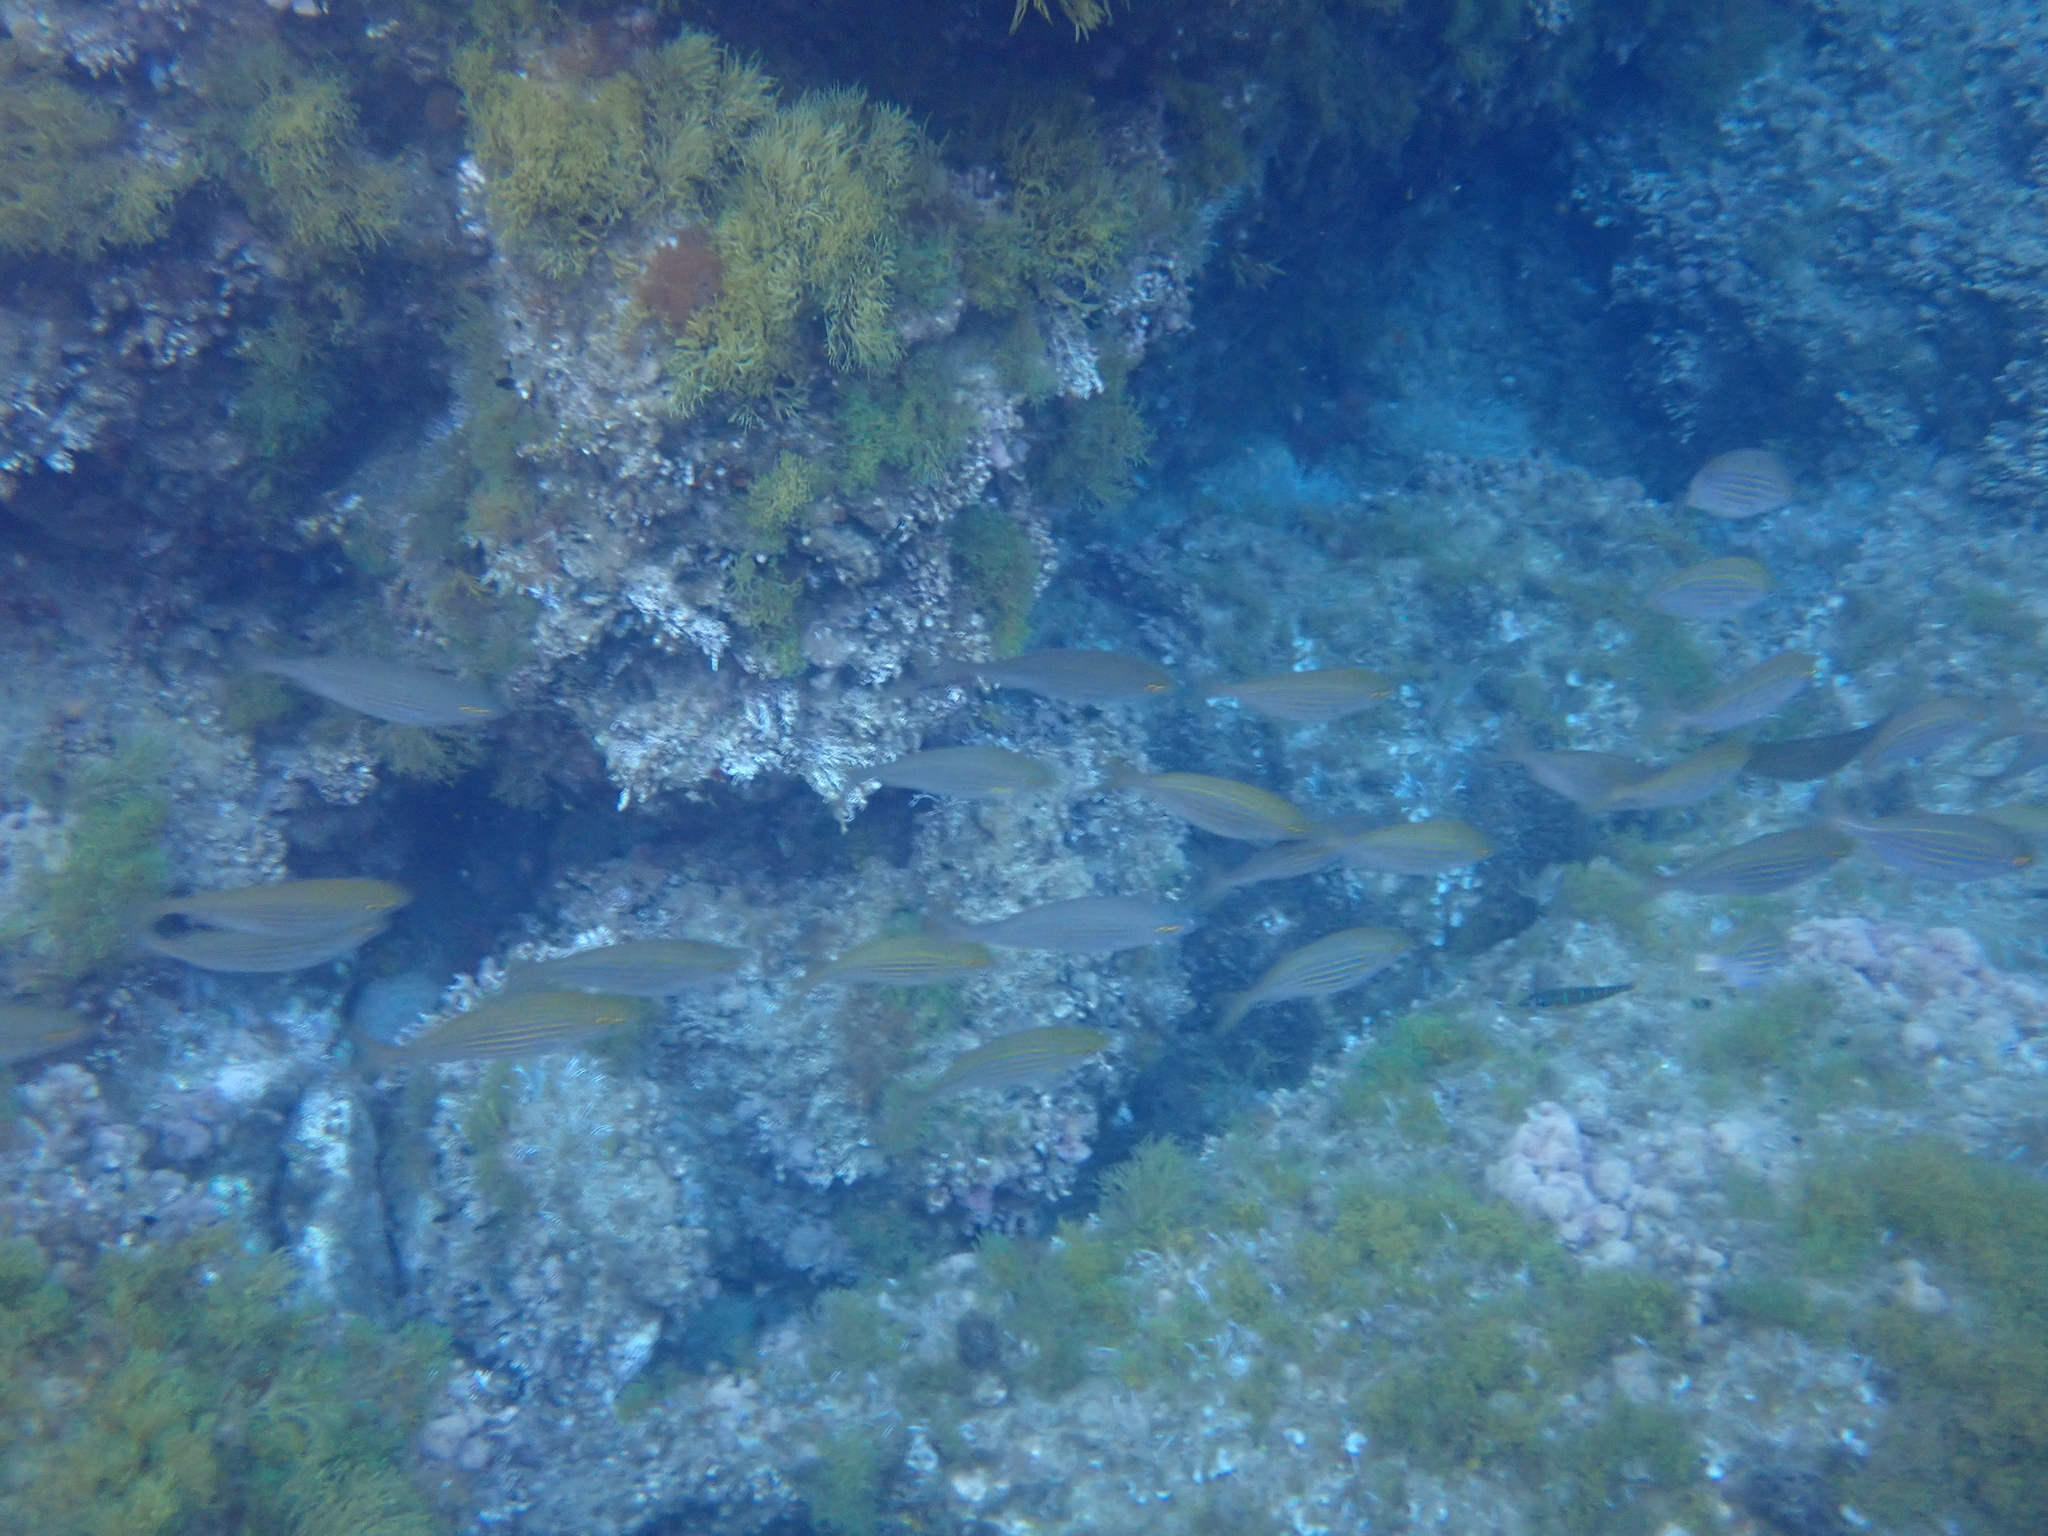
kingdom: Animalia
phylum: Chordata
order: Perciformes
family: Sparidae
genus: Sarpa
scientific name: Sarpa salpa
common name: Salema
